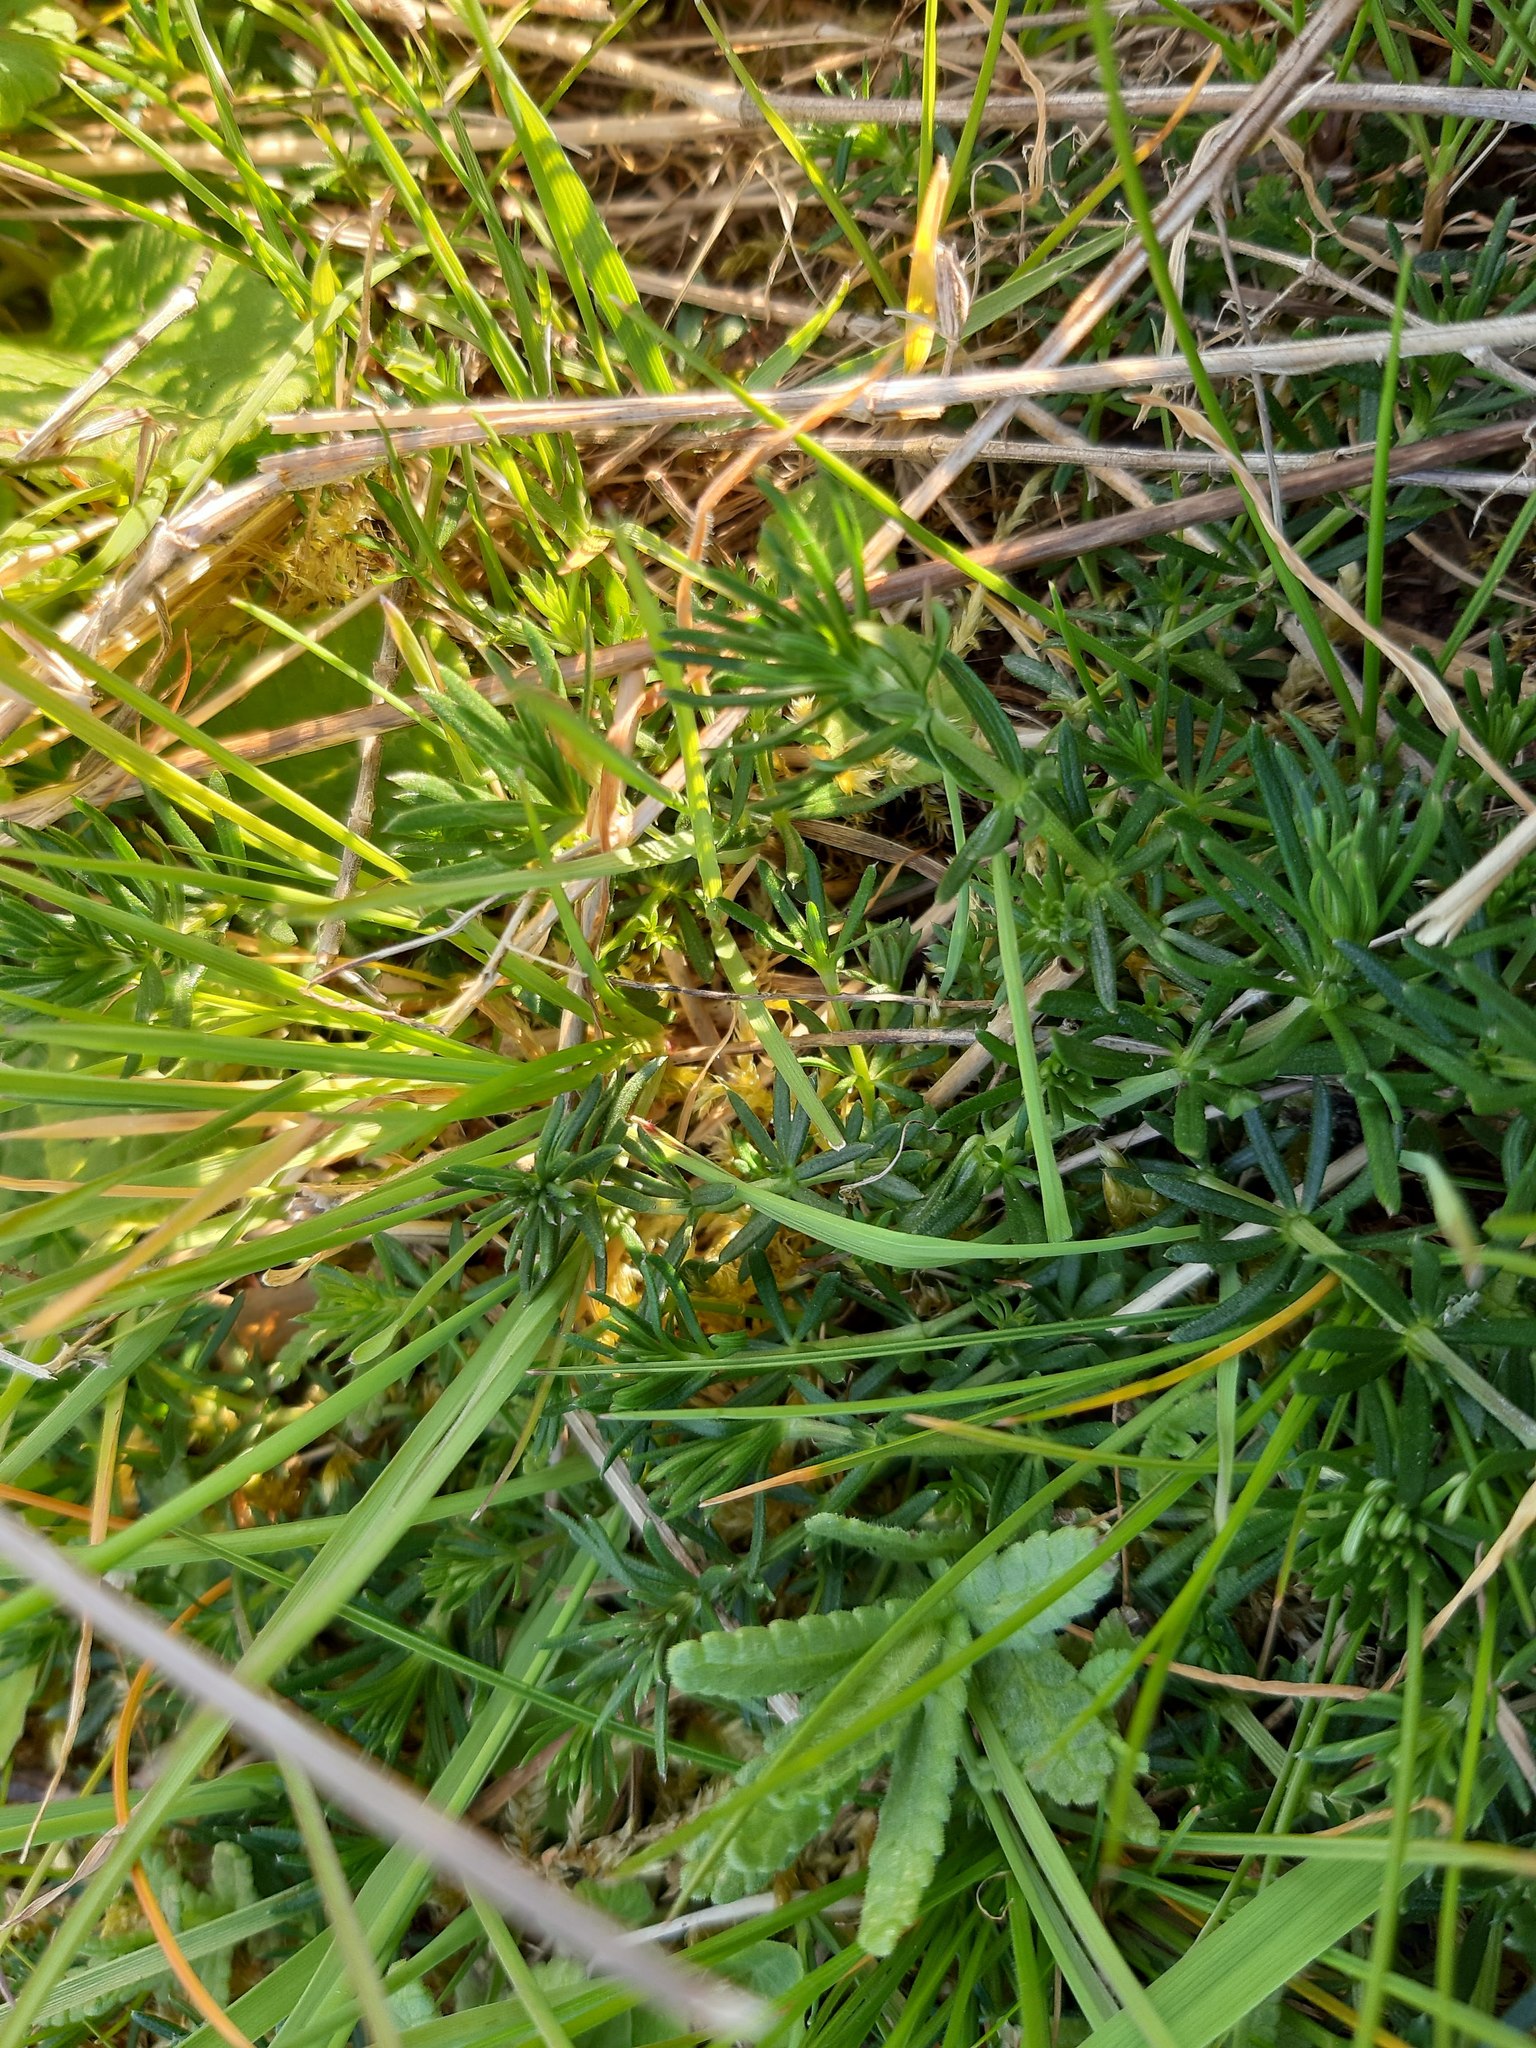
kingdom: Plantae
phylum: Tracheophyta
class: Magnoliopsida
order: Gentianales
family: Rubiaceae
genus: Galium
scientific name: Galium verum
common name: Lady's bedstraw
